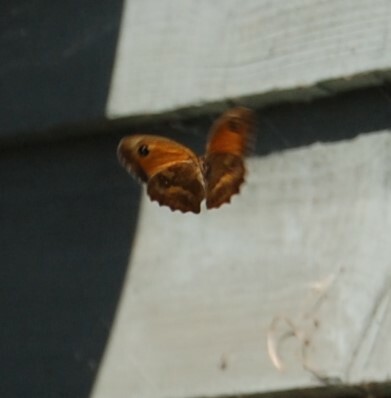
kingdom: Animalia
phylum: Arthropoda
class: Insecta
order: Lepidoptera
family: Nymphalidae
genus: Pyronia
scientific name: Pyronia tithonus
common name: Gatekeeper
